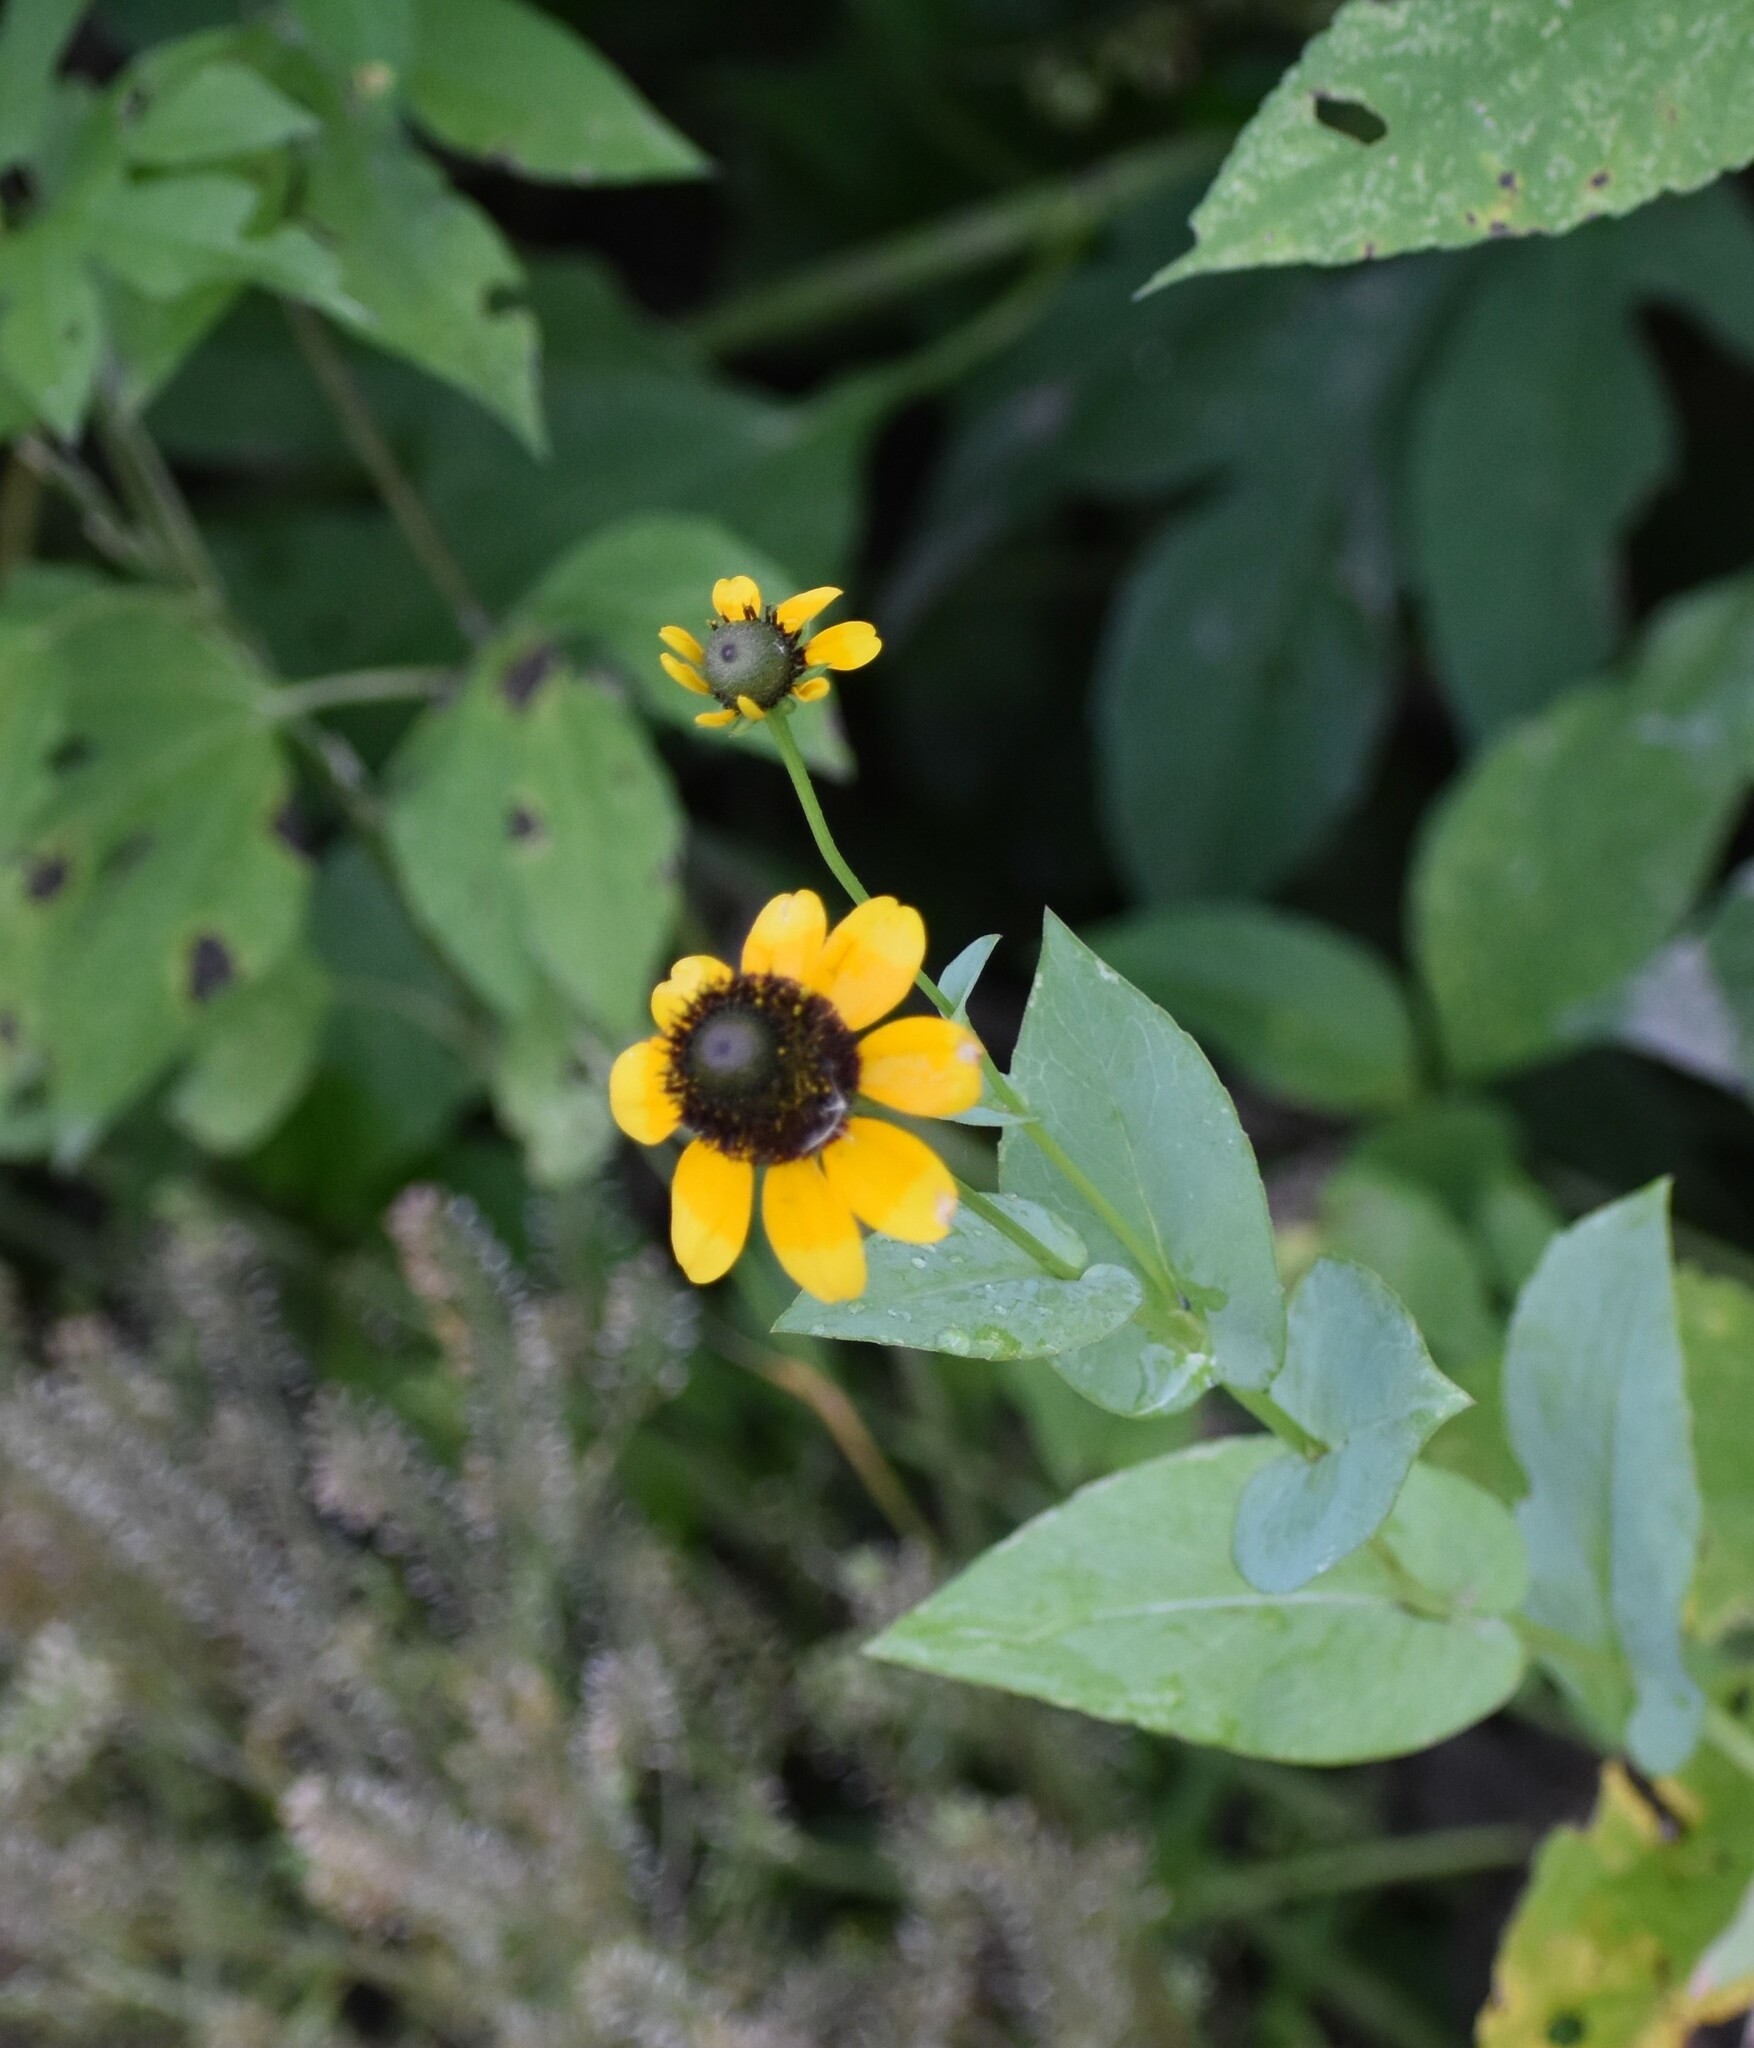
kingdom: Plantae
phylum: Tracheophyta
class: Magnoliopsida
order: Asterales
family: Asteraceae
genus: Rudbeckia
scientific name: Rudbeckia amplexicaulis
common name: Clasping-leaf coneflower
